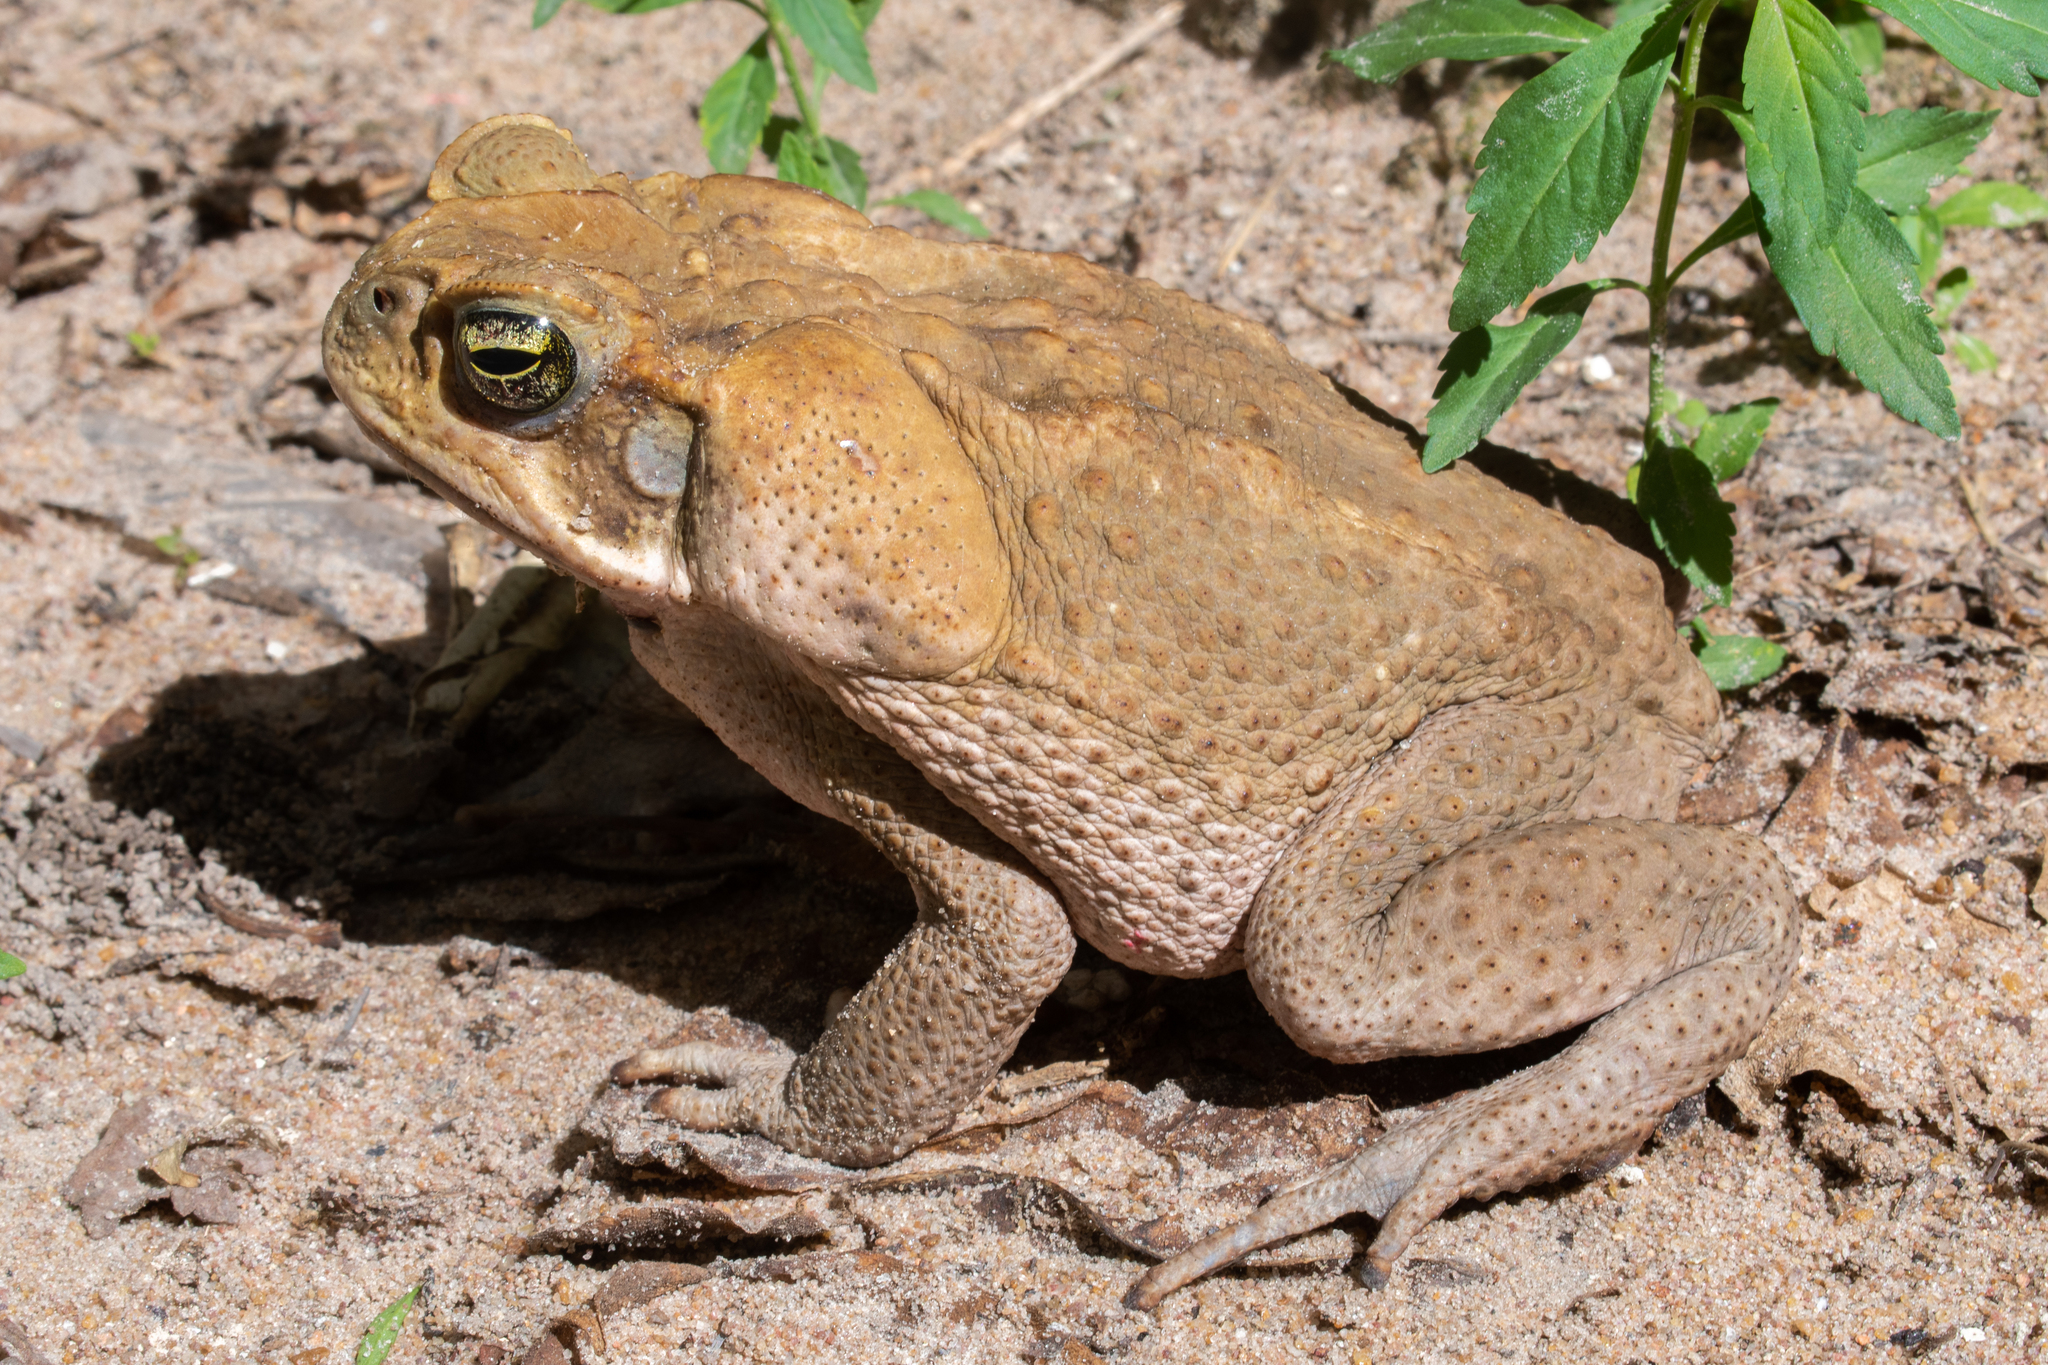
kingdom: Animalia
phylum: Chordata
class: Amphibia
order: Anura
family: Bufonidae
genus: Rhinella
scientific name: Rhinella marina
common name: Cane toad
